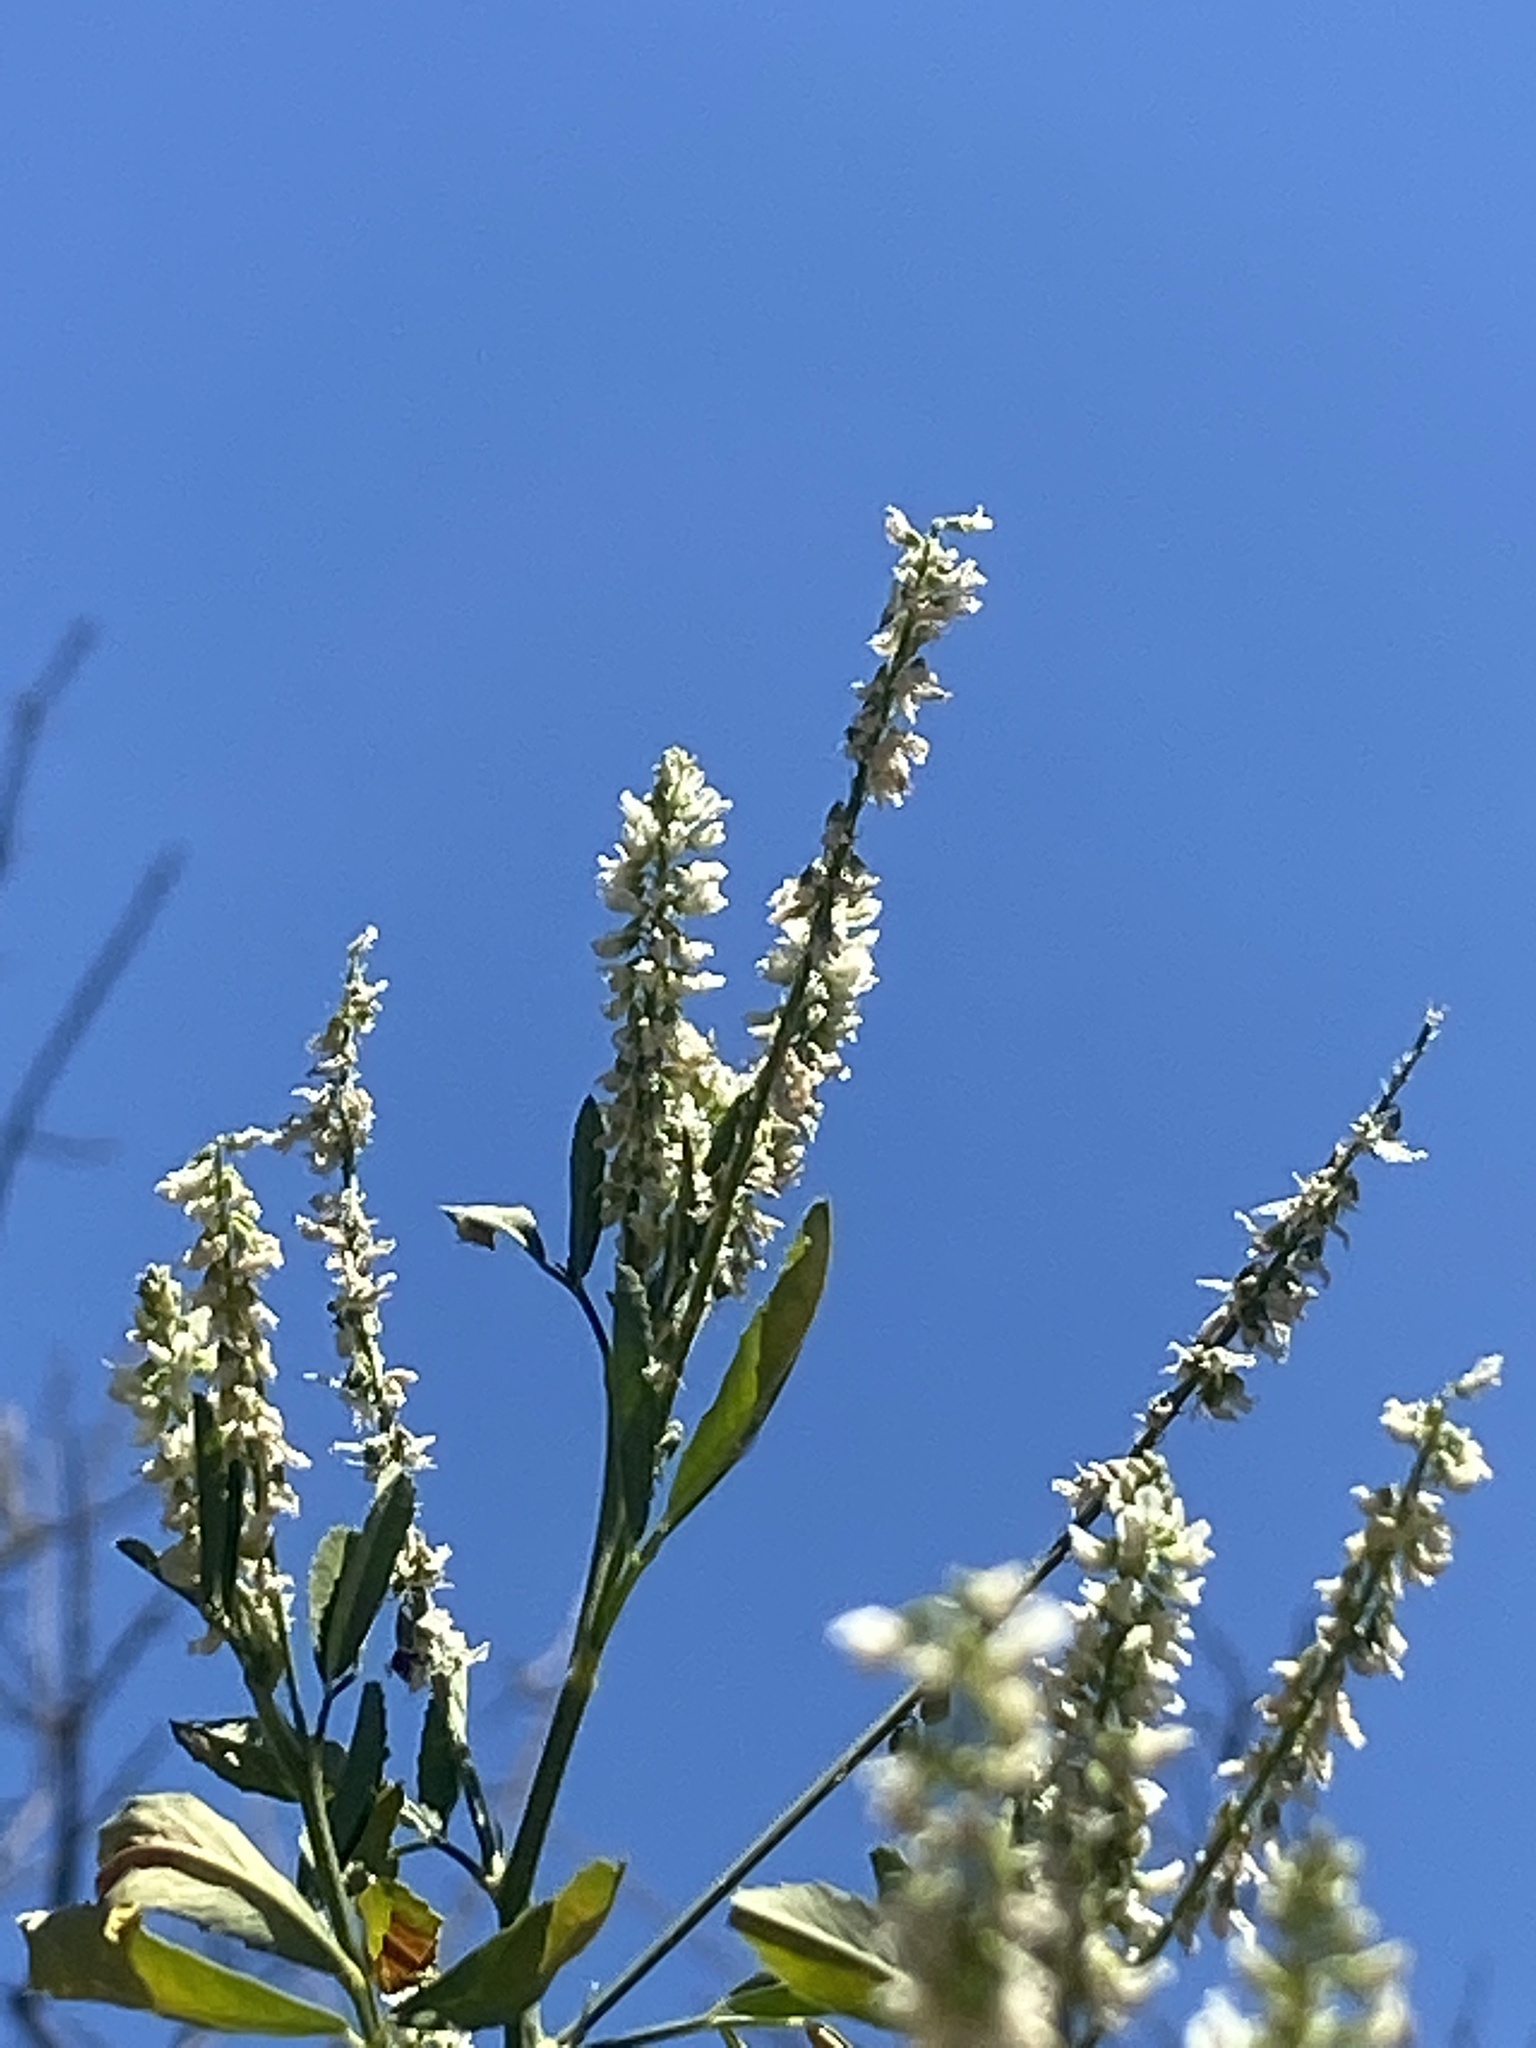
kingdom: Plantae
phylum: Tracheophyta
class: Magnoliopsida
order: Fabales
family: Fabaceae
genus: Melilotus
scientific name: Melilotus albus
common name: White melilot
